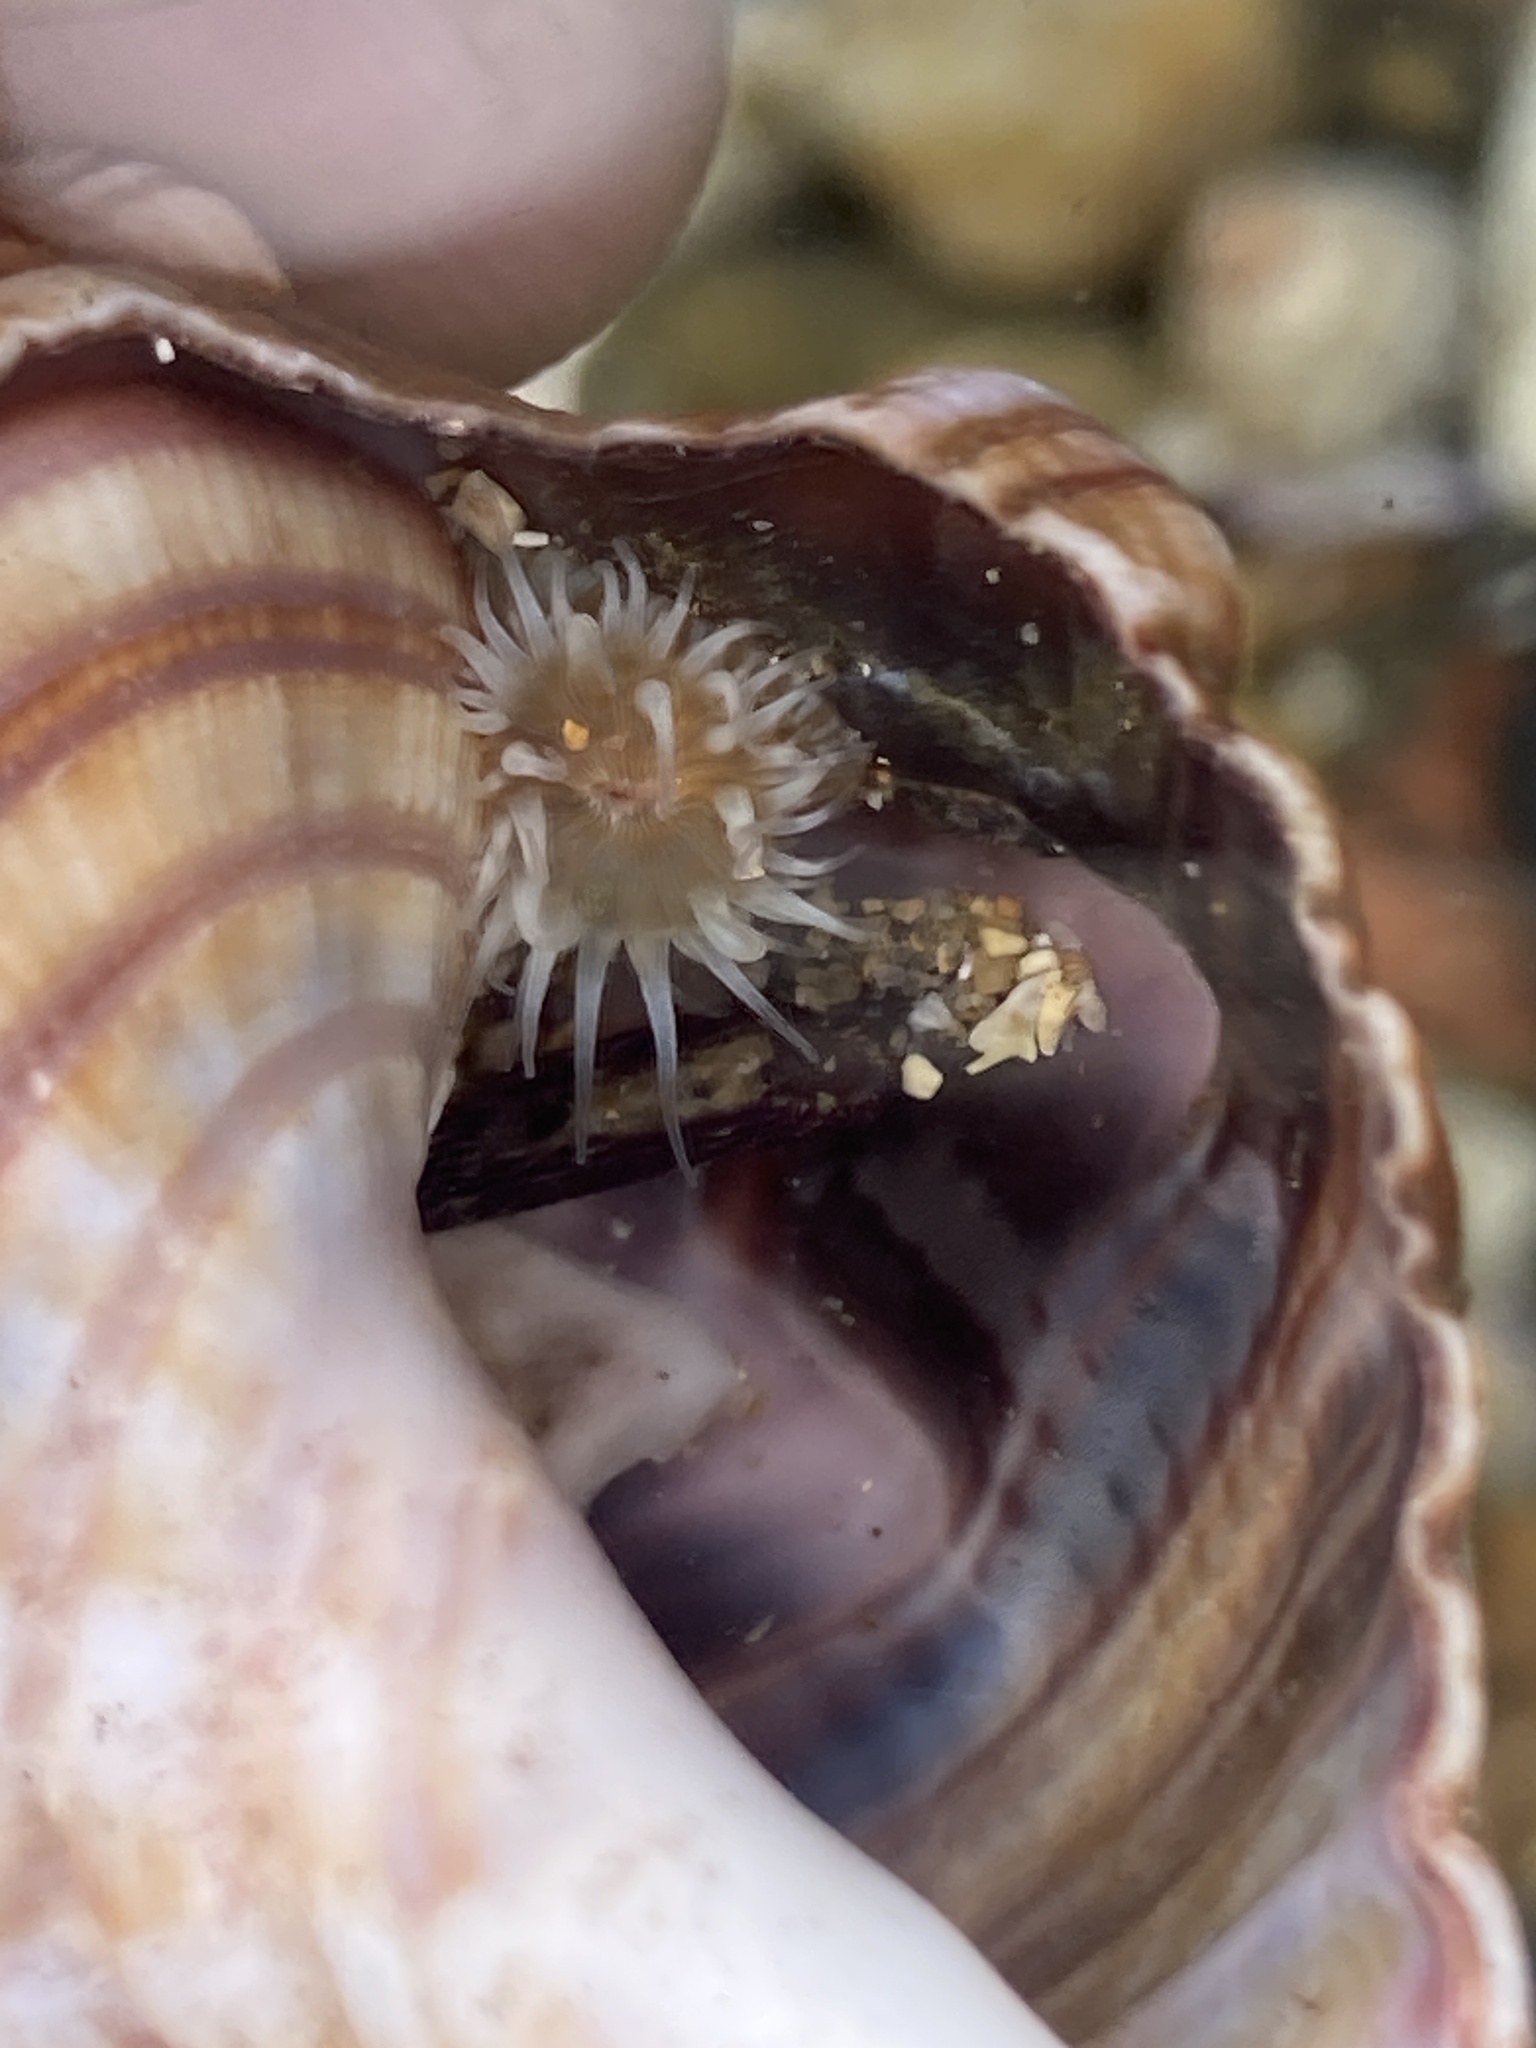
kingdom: Animalia
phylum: Cnidaria
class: Anthozoa
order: Actiniaria
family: Sagartiidae
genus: Anthothoe
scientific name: Anthothoe albocincta
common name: Orange striped anemone
